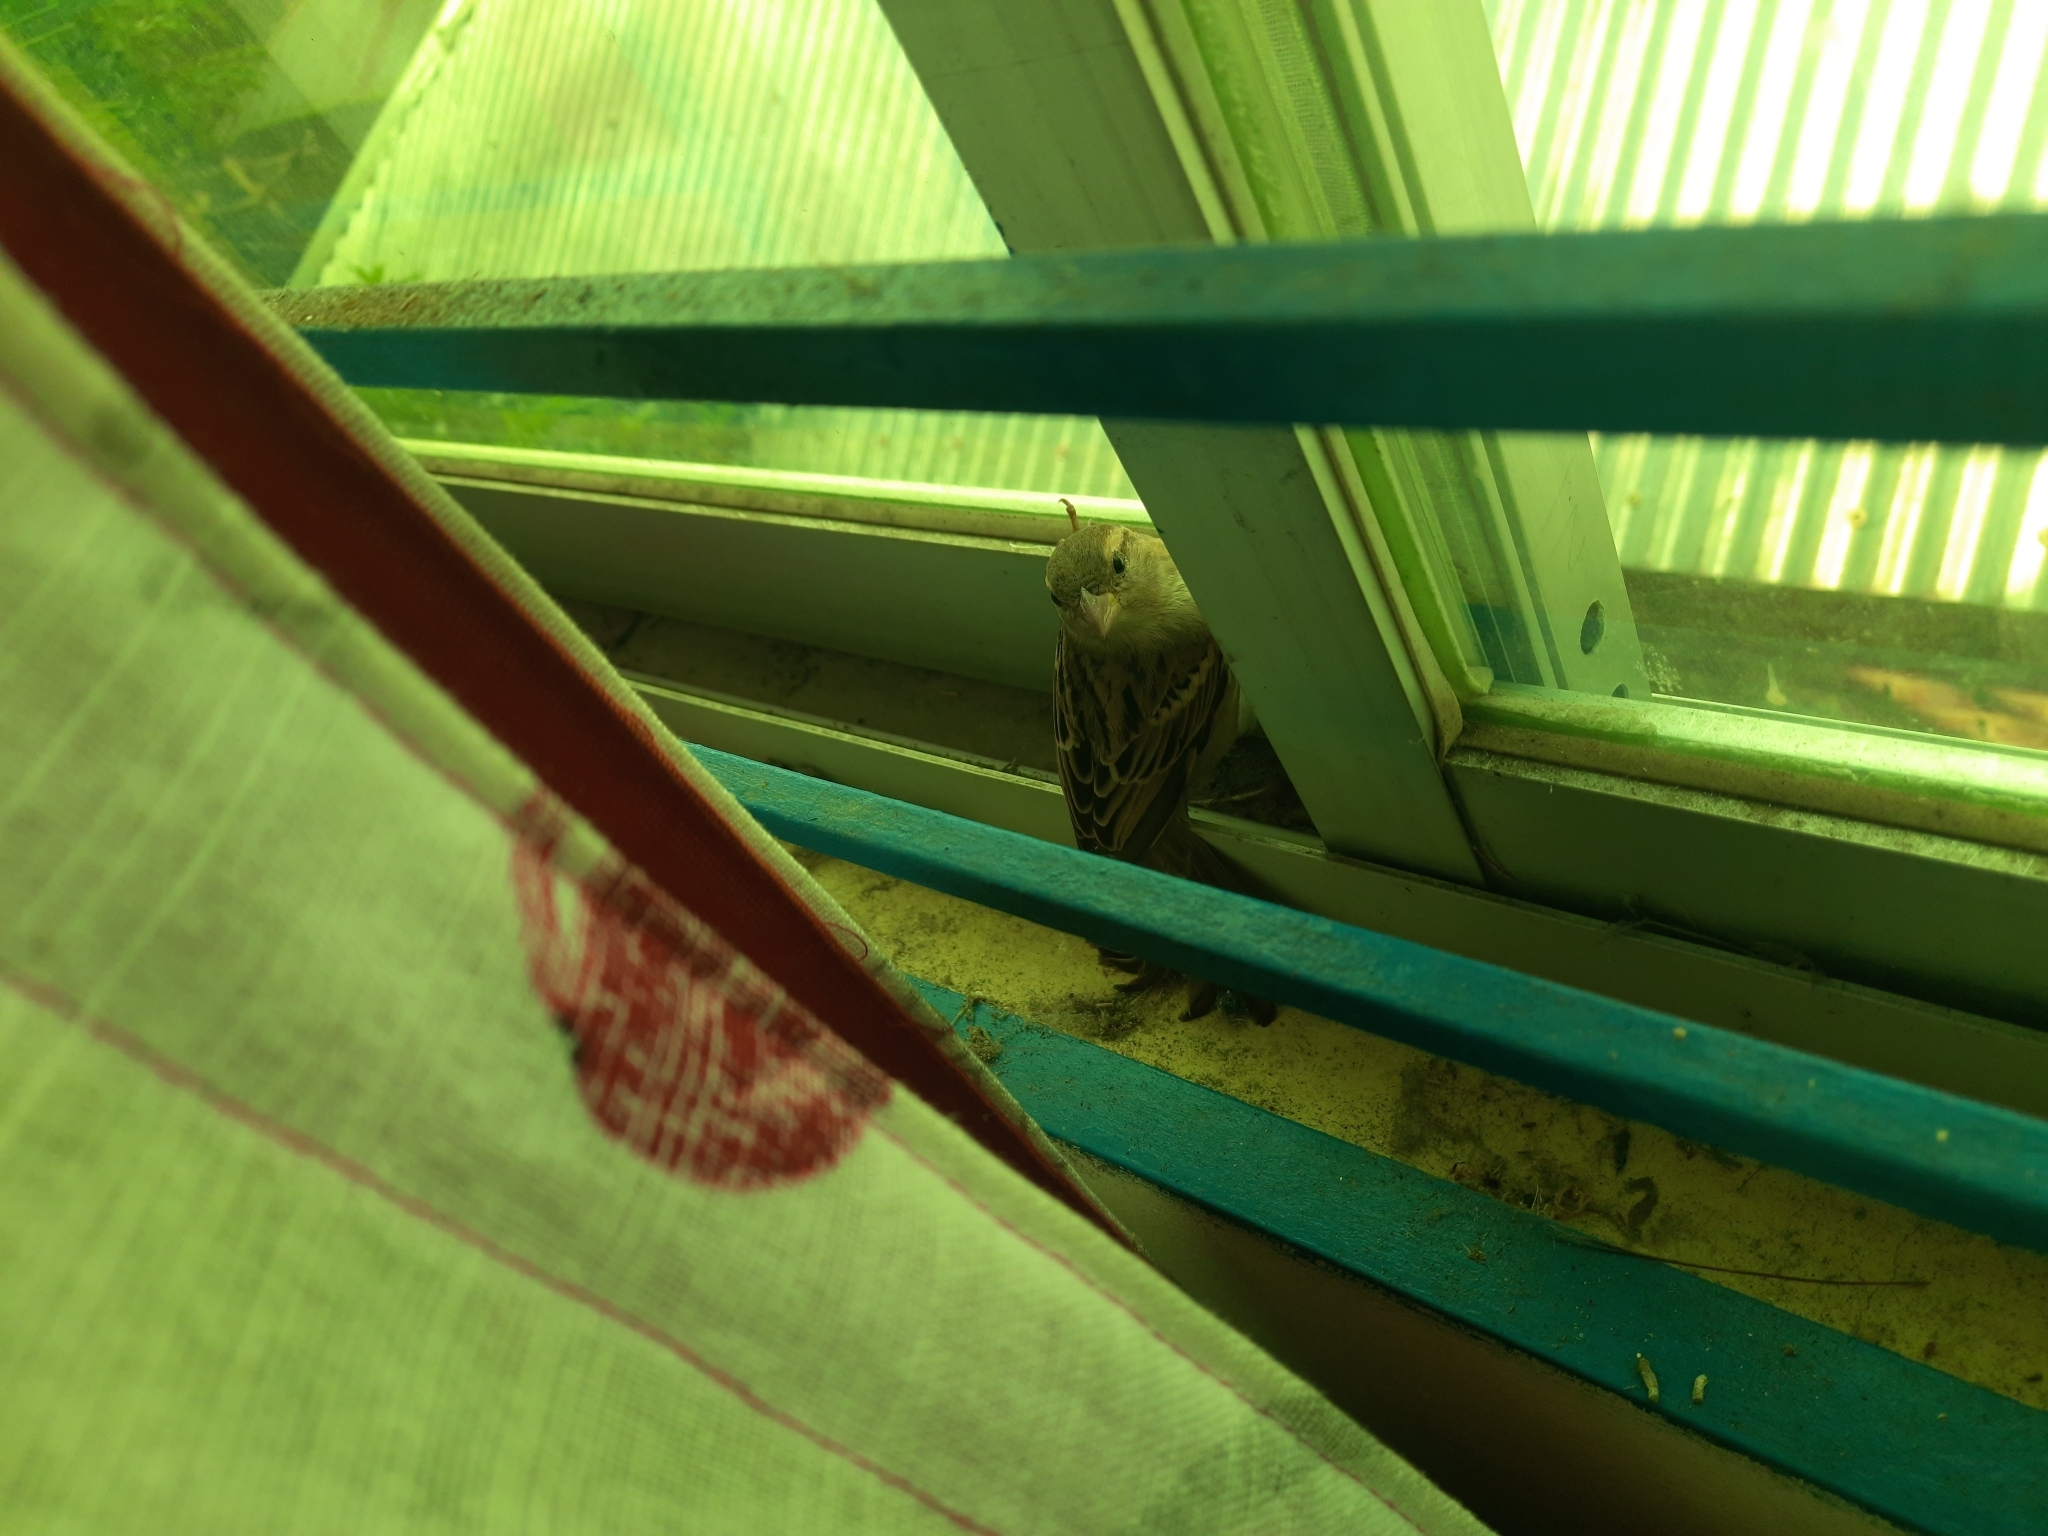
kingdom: Animalia
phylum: Chordata
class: Aves
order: Passeriformes
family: Passeridae
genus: Passer
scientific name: Passer domesticus
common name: House sparrow
